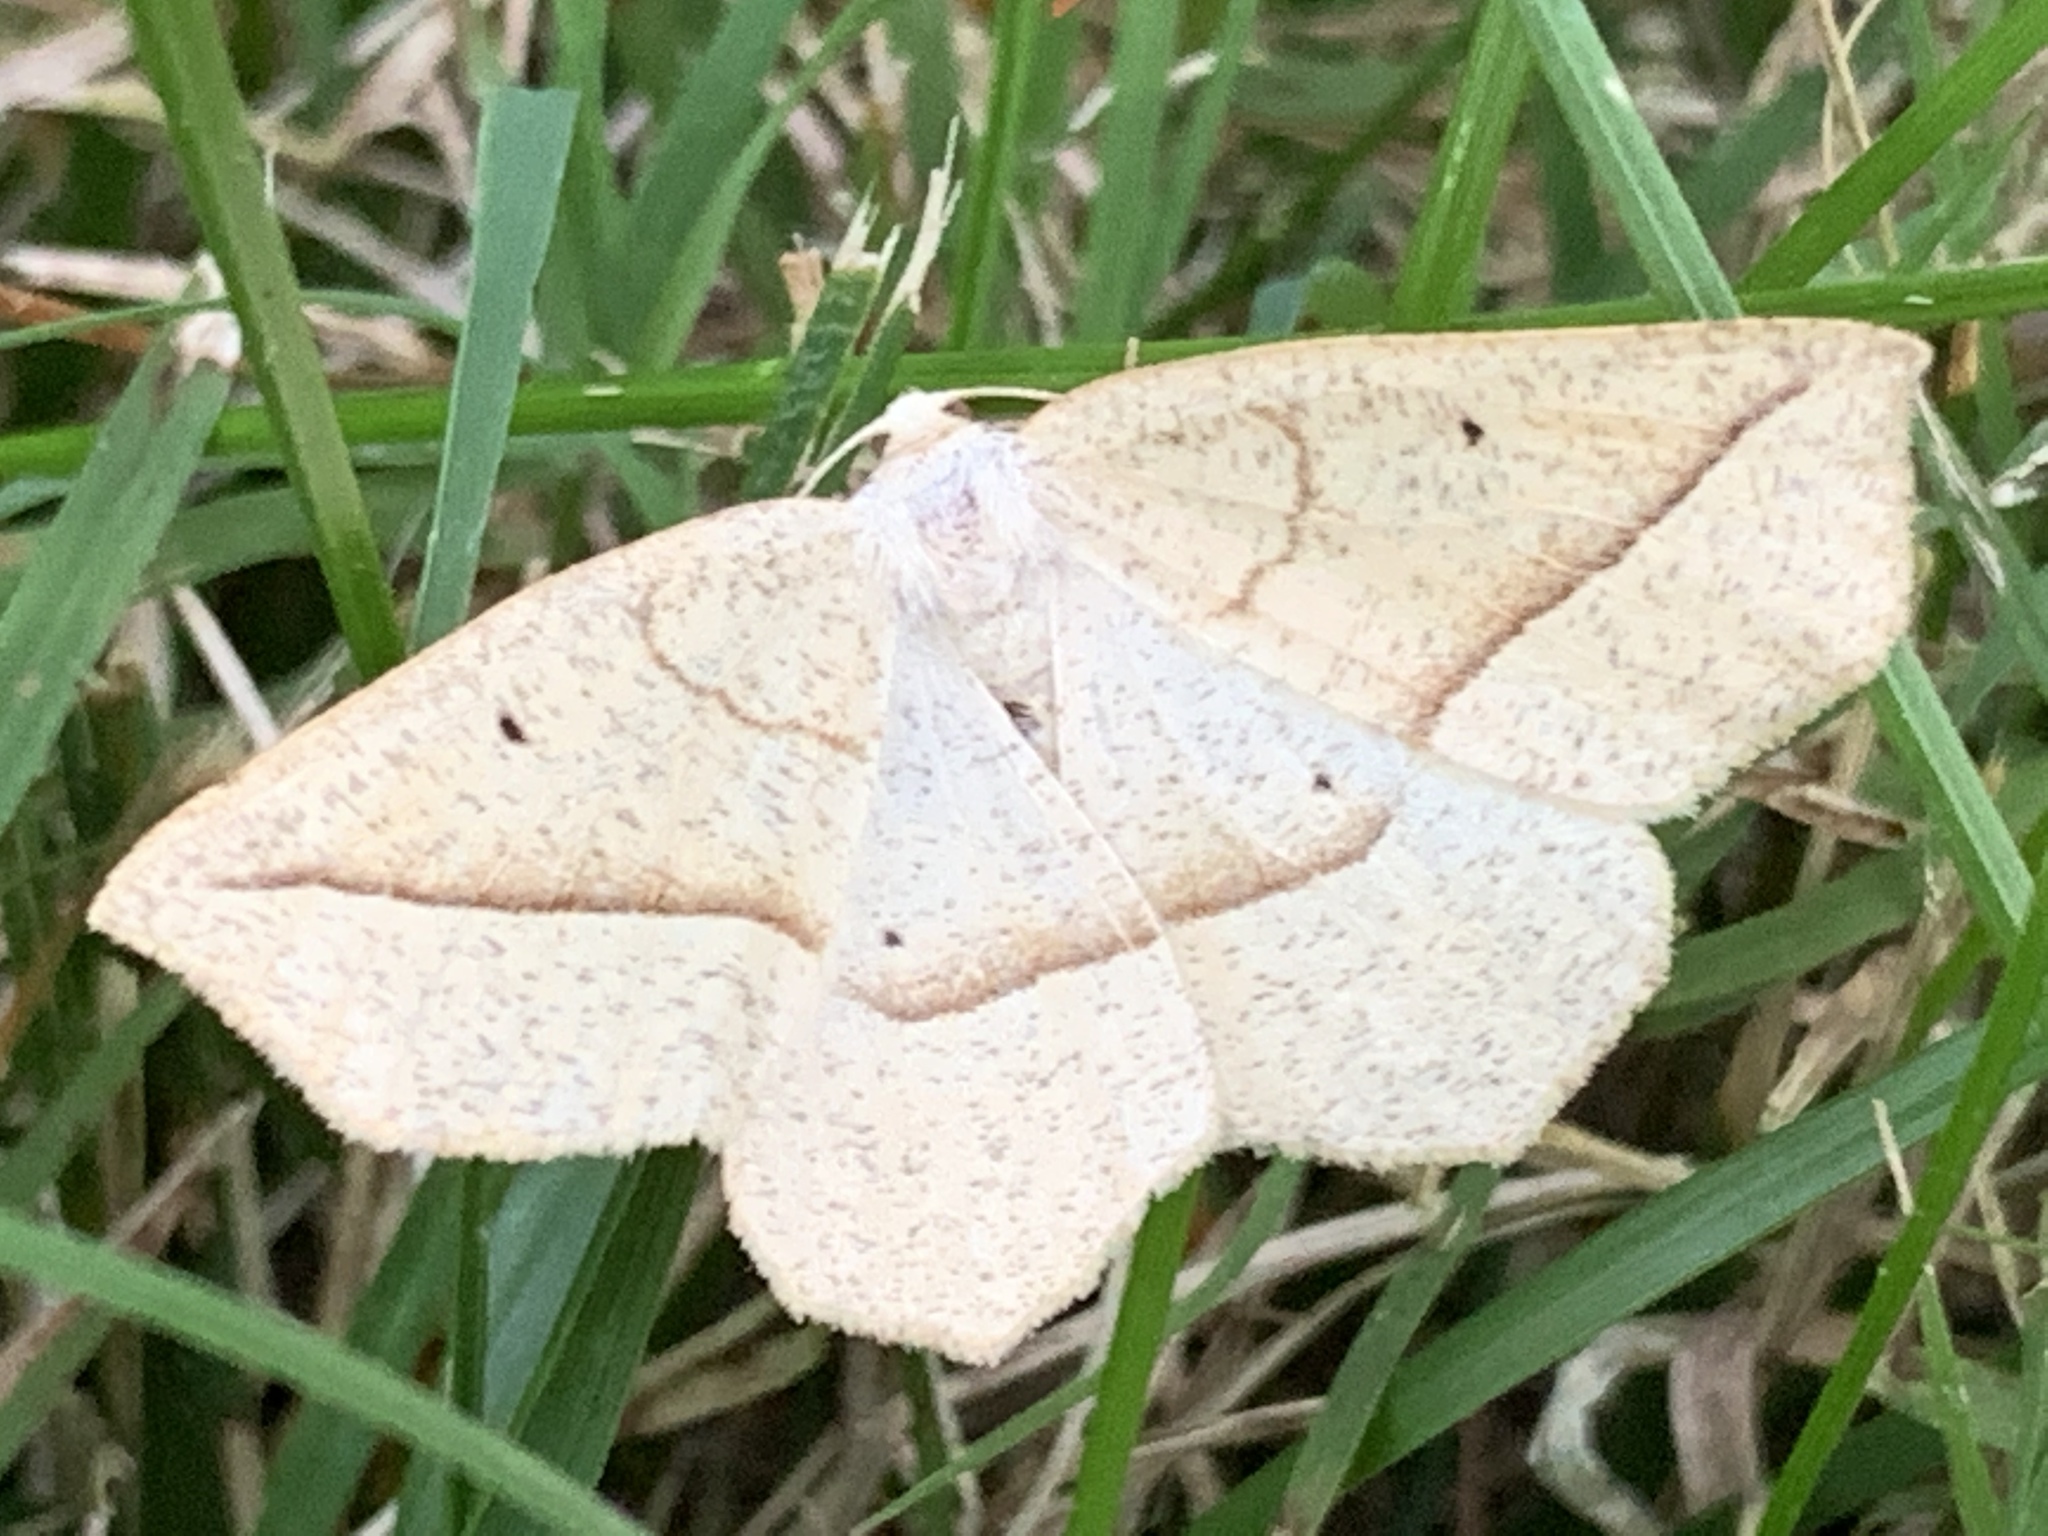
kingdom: Animalia
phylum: Arthropoda
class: Insecta
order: Lepidoptera
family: Geometridae
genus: Eusarca
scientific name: Eusarca confusaria
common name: Confused eusarca
